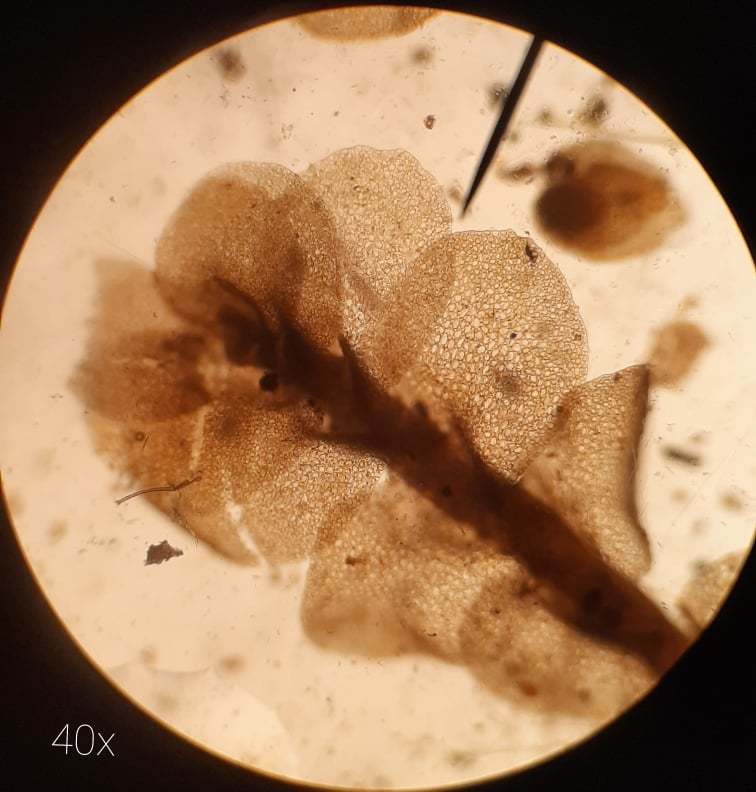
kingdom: Plantae
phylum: Marchantiophyta
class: Jungermanniopsida
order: Jungermanniales
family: Myliaceae
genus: Mylia
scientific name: Mylia anomala
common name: Anomalous flapwort
